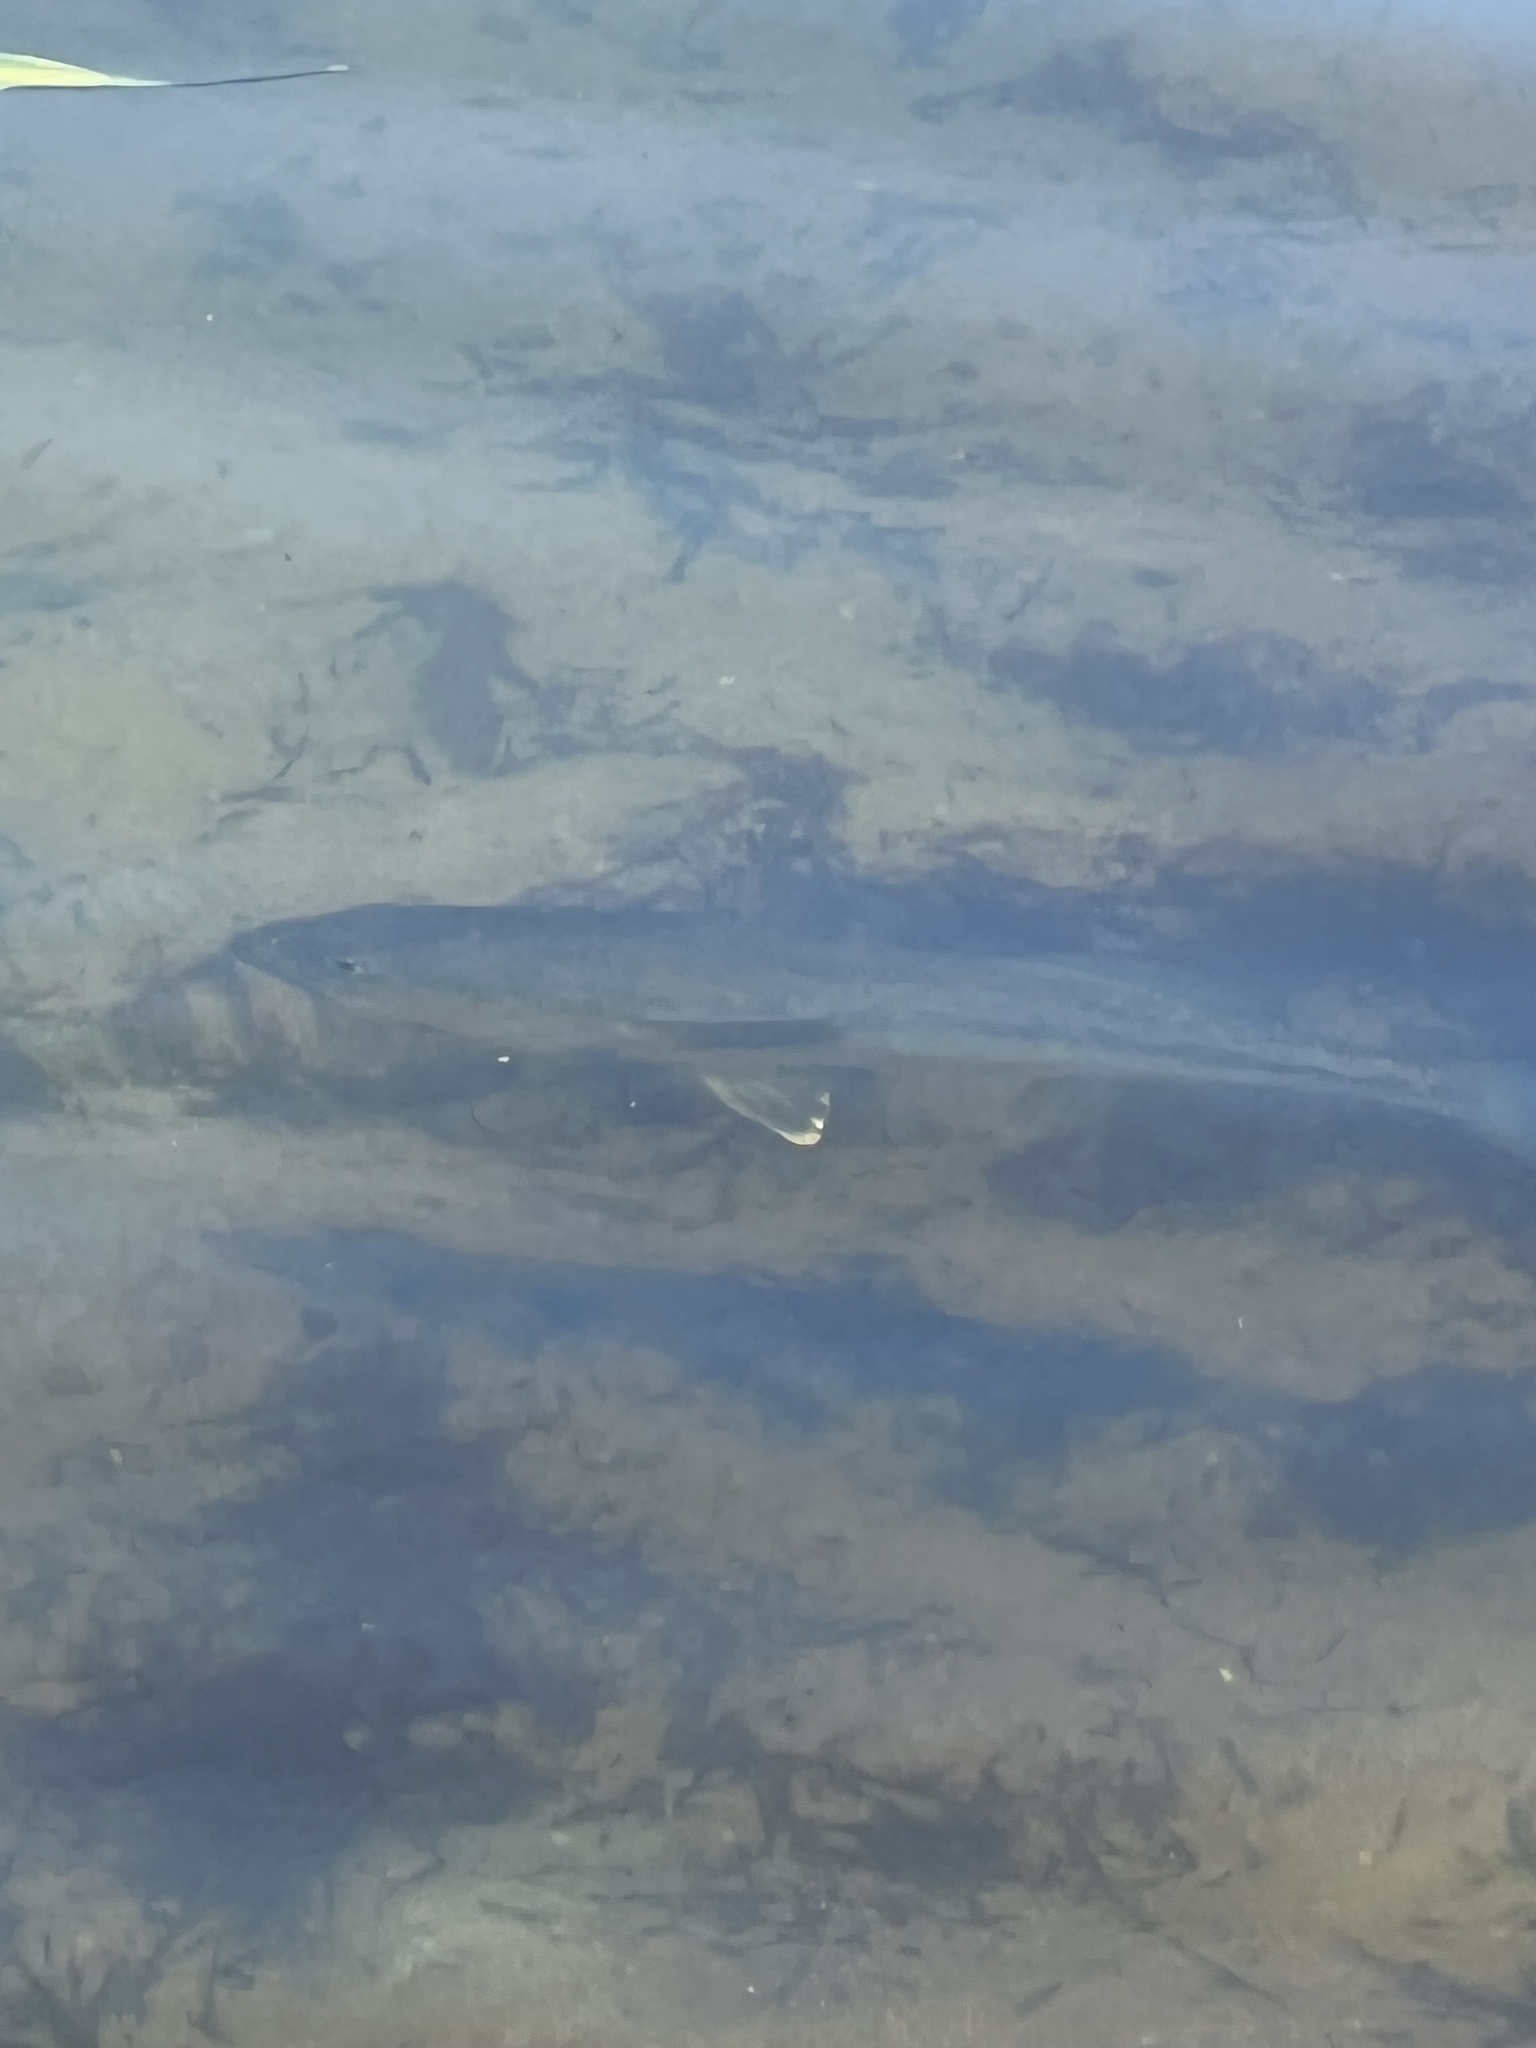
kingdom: Animalia
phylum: Chordata
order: Perciformes
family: Centrarchidae
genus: Micropterus
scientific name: Micropterus
